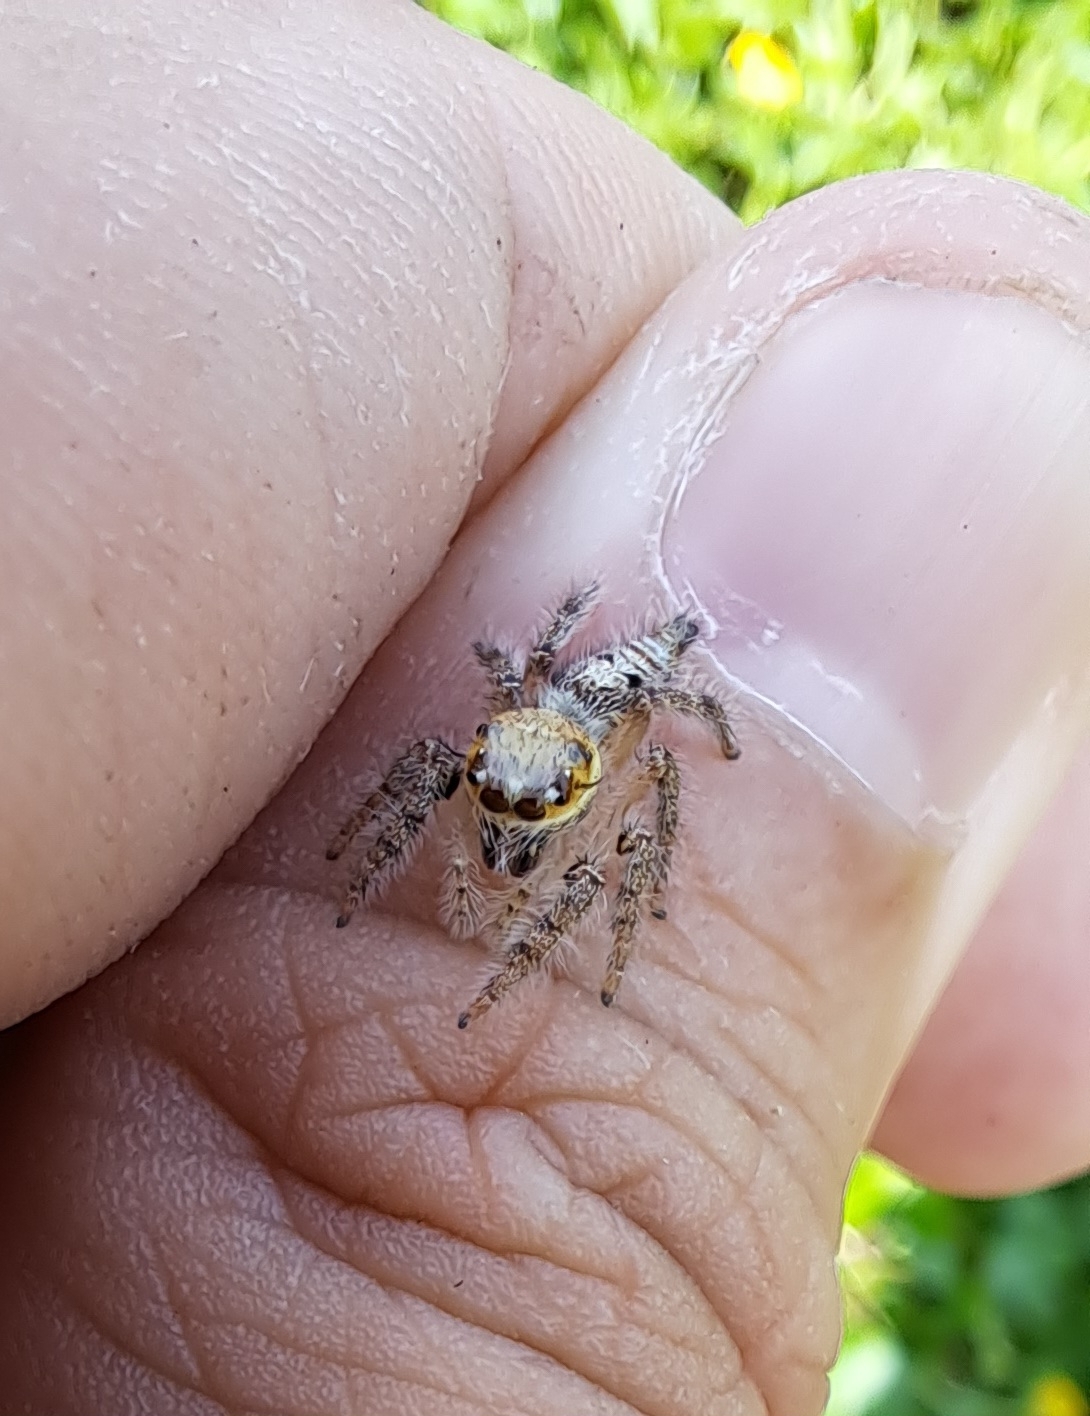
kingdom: Animalia
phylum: Arthropoda
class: Arachnida
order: Araneae
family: Salticidae
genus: Hyllus
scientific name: Hyllus semicupreus
